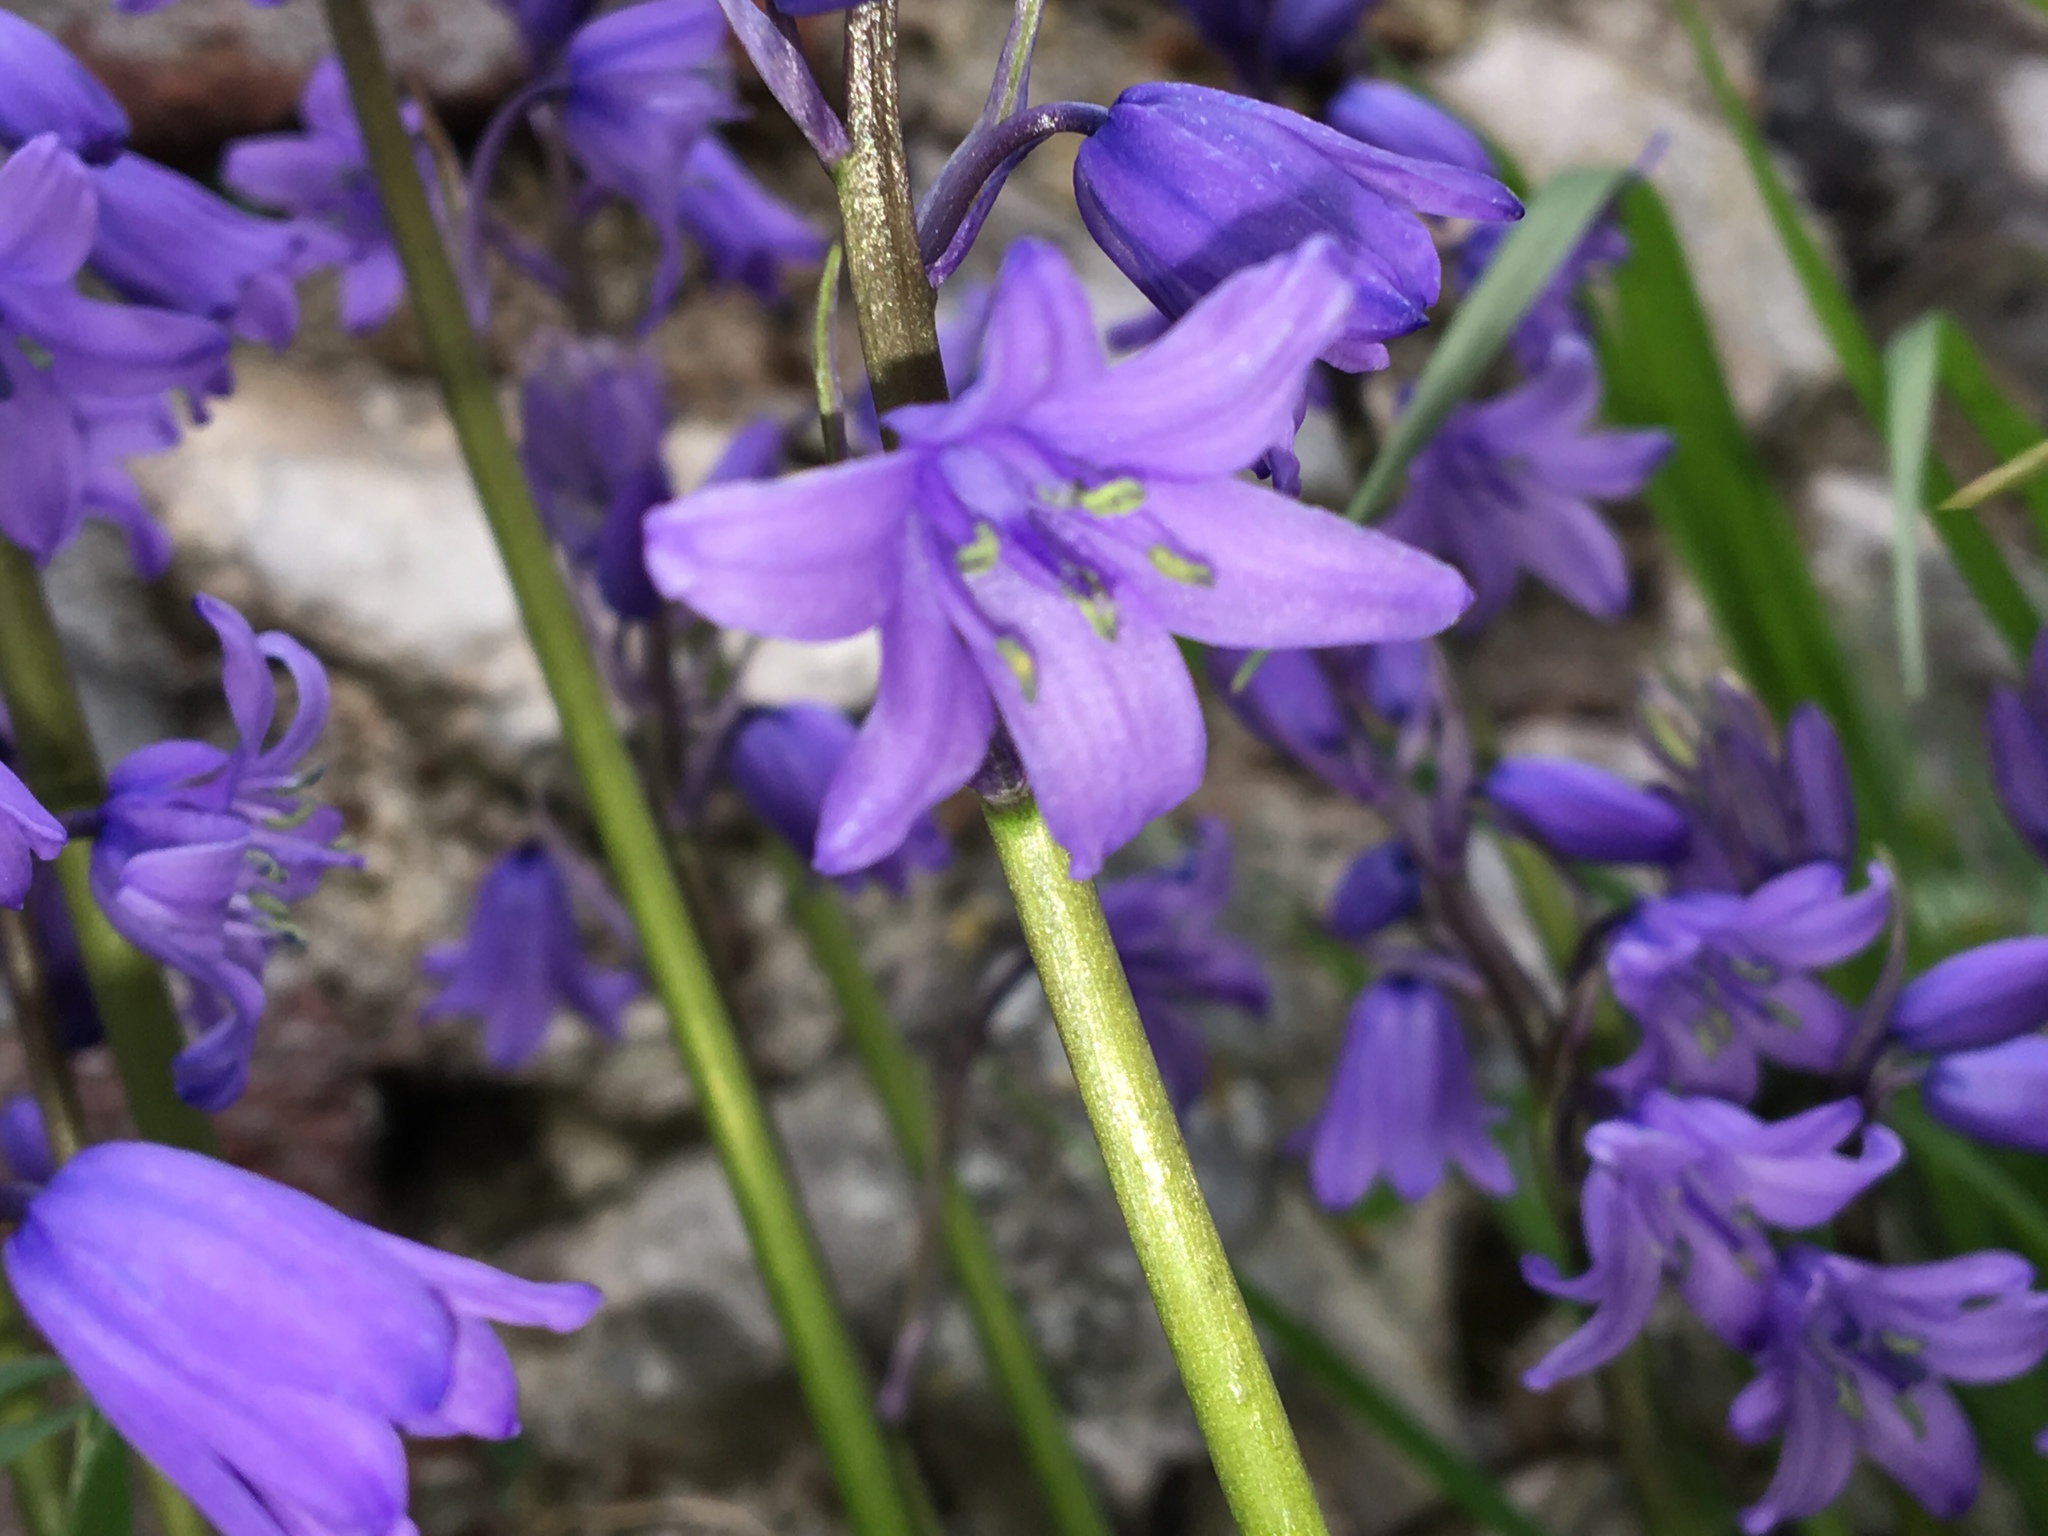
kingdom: Plantae
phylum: Tracheophyta
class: Liliopsida
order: Asparagales
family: Asparagaceae
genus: Hyacinthoides
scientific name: Hyacinthoides massartiana
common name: Hyacinthoides
